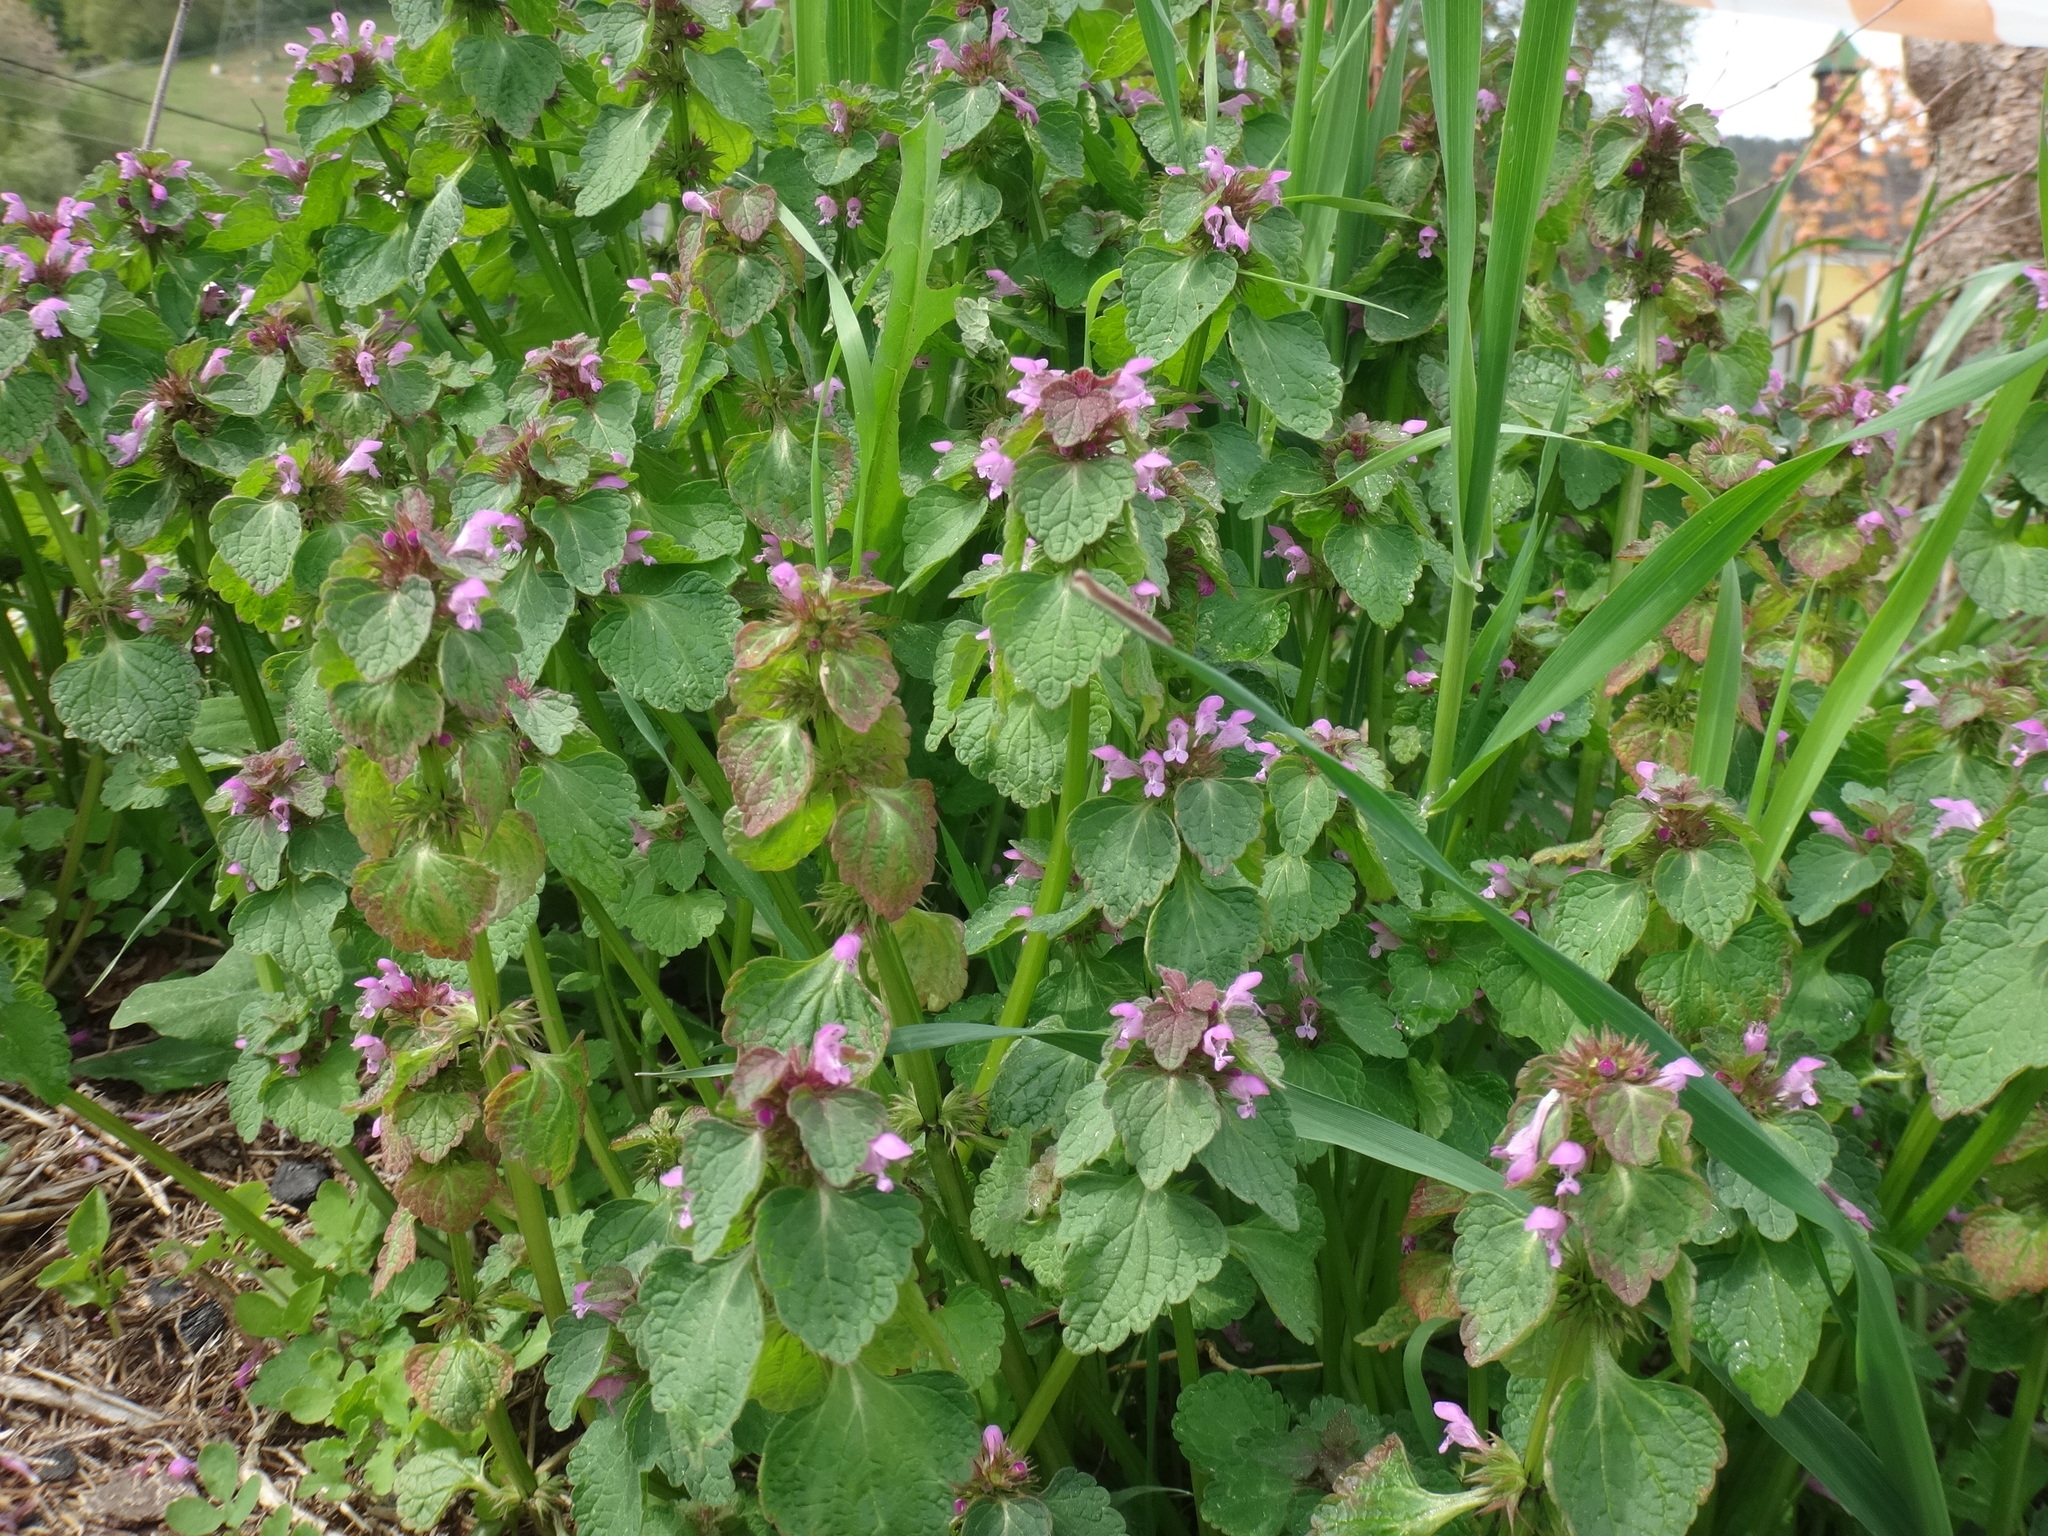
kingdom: Plantae
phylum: Tracheophyta
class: Magnoliopsida
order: Lamiales
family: Lamiaceae
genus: Lamium
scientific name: Lamium purpureum
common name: Red dead-nettle
